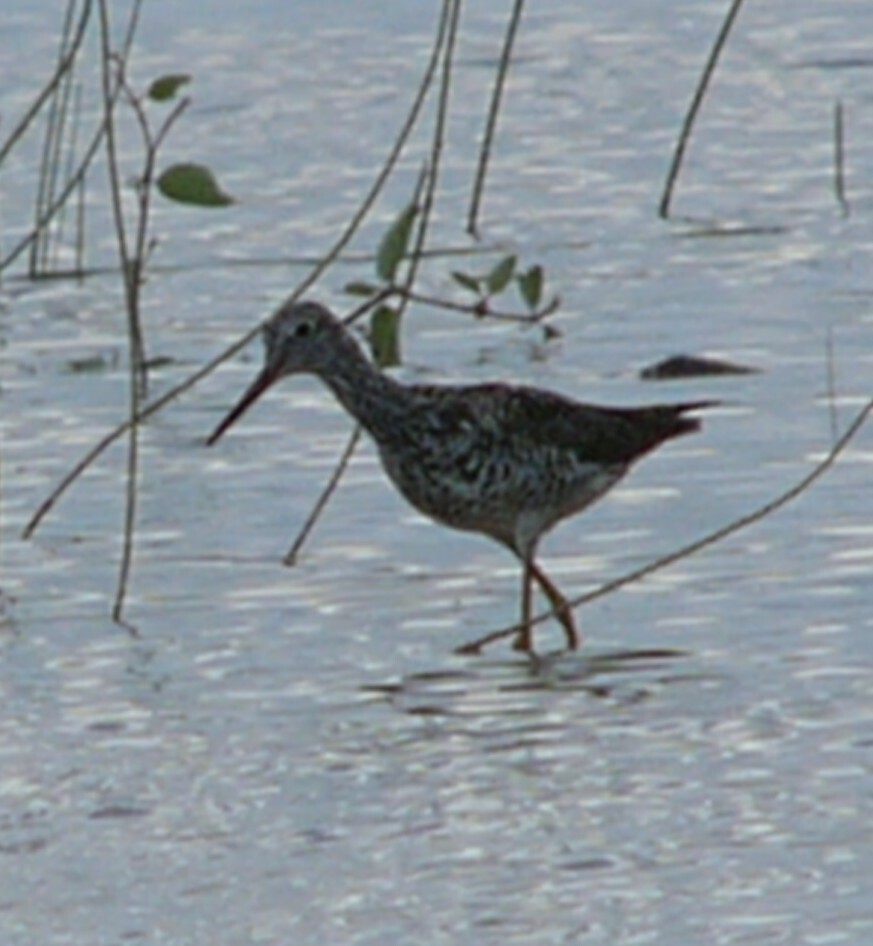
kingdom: Animalia
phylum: Chordata
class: Aves
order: Charadriiformes
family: Scolopacidae
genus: Tringa
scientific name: Tringa melanoleuca
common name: Greater yellowlegs
